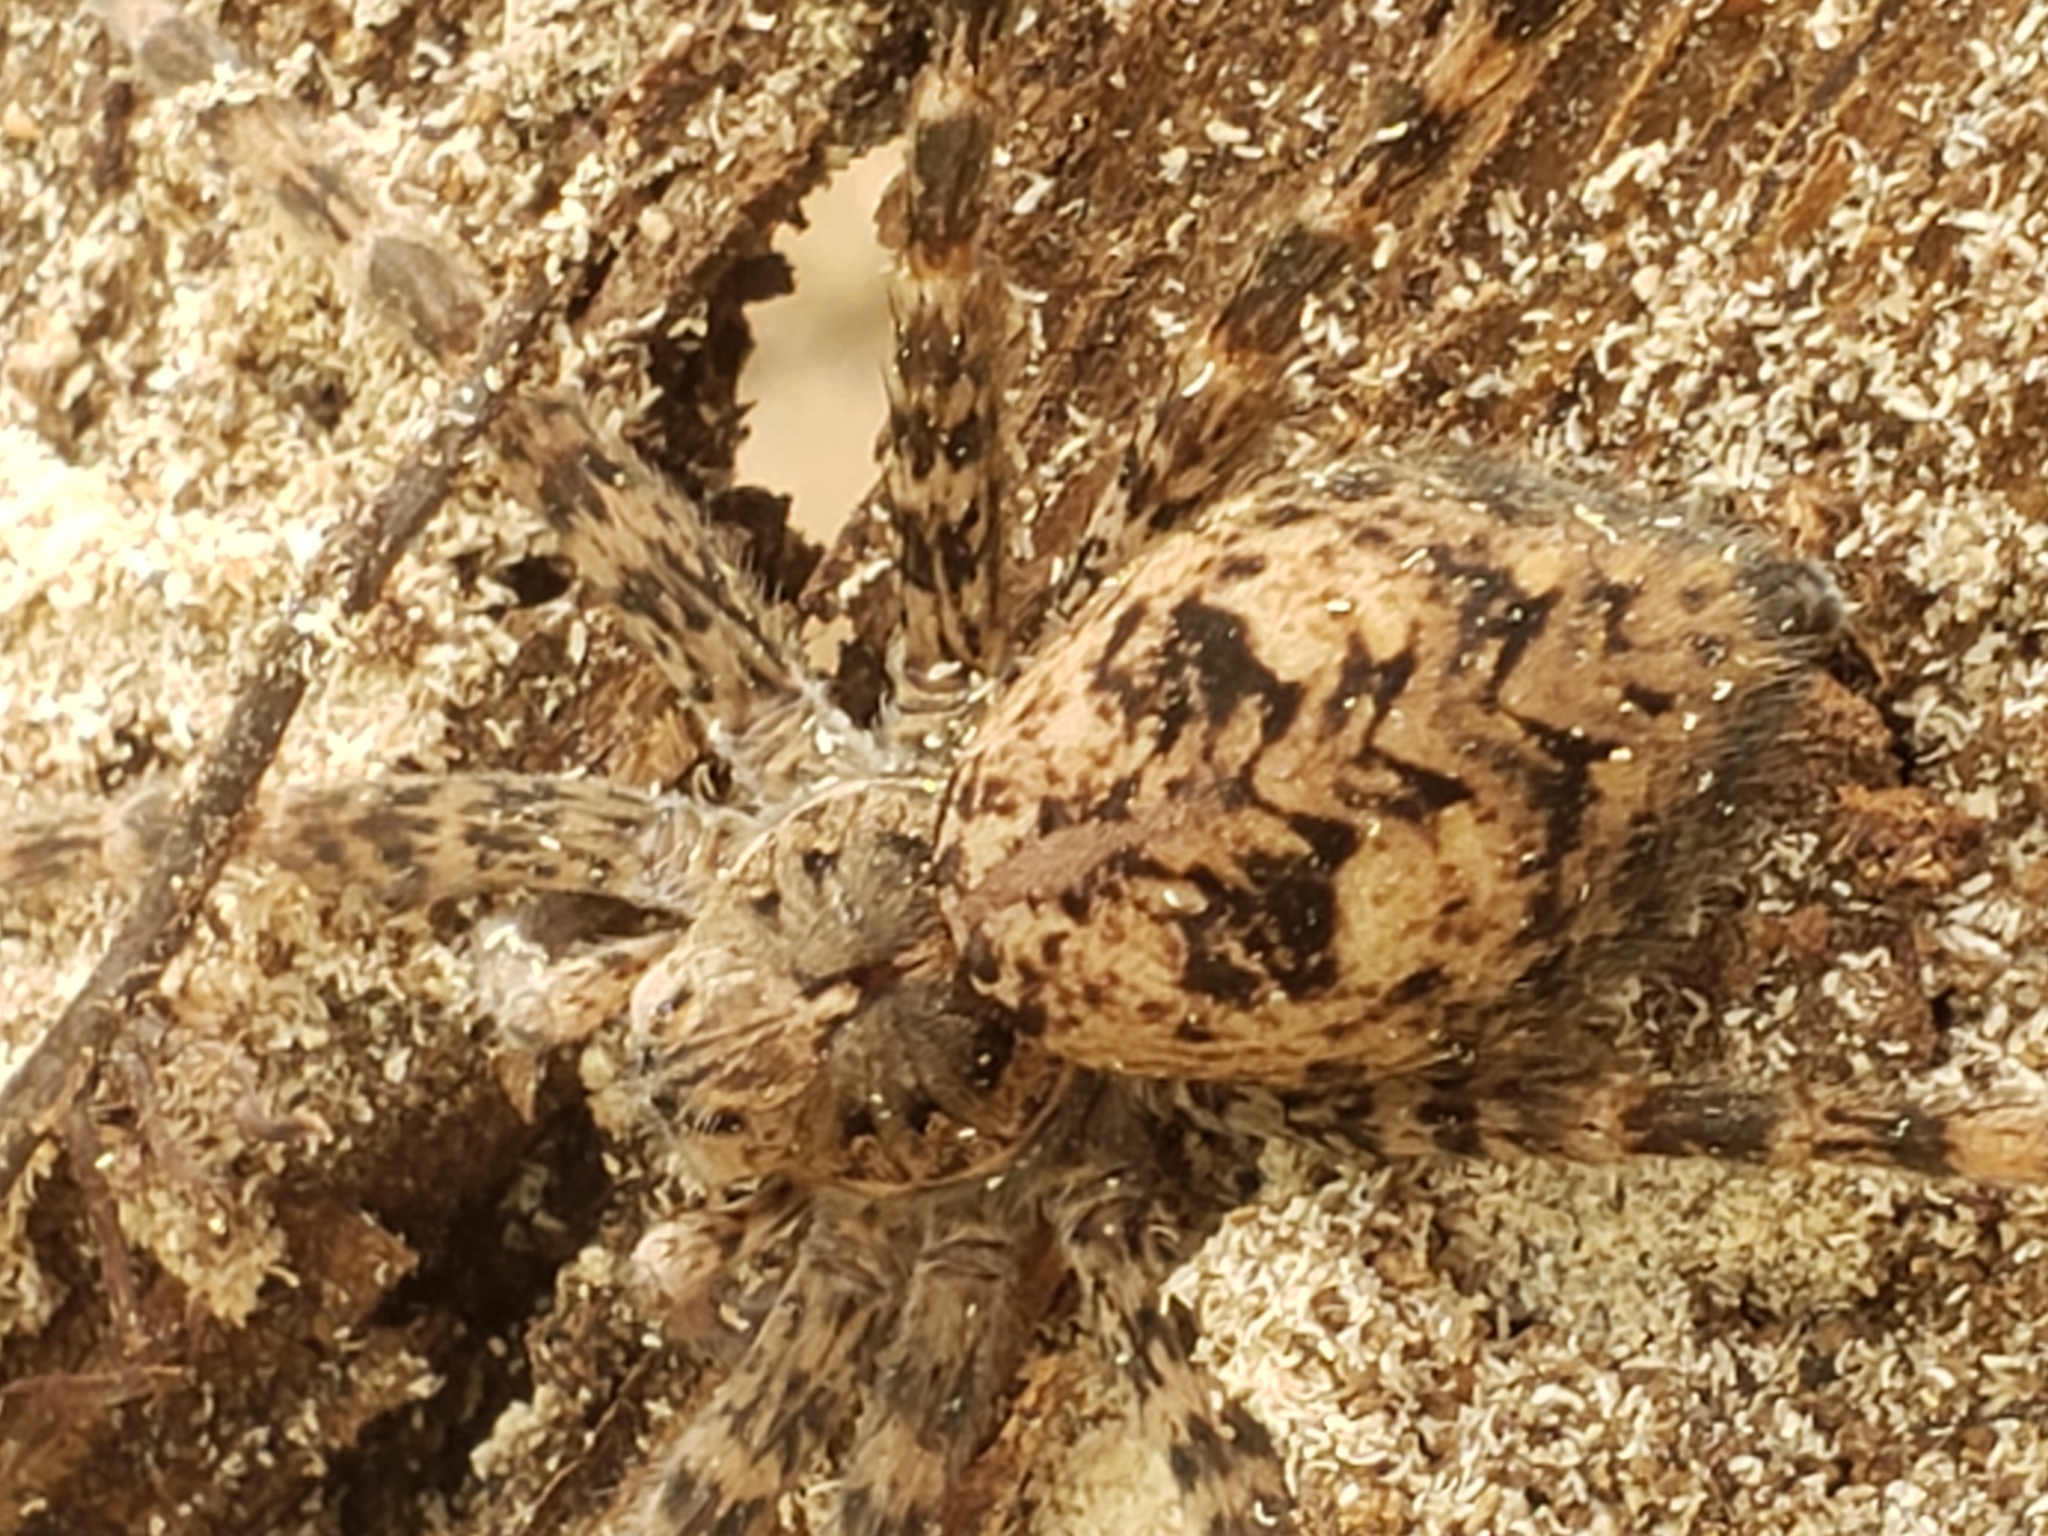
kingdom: Animalia
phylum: Arthropoda
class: Arachnida
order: Araneae
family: Pisauridae
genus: Dolomedes
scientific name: Dolomedes tenebrosus
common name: Dark fishing spider
